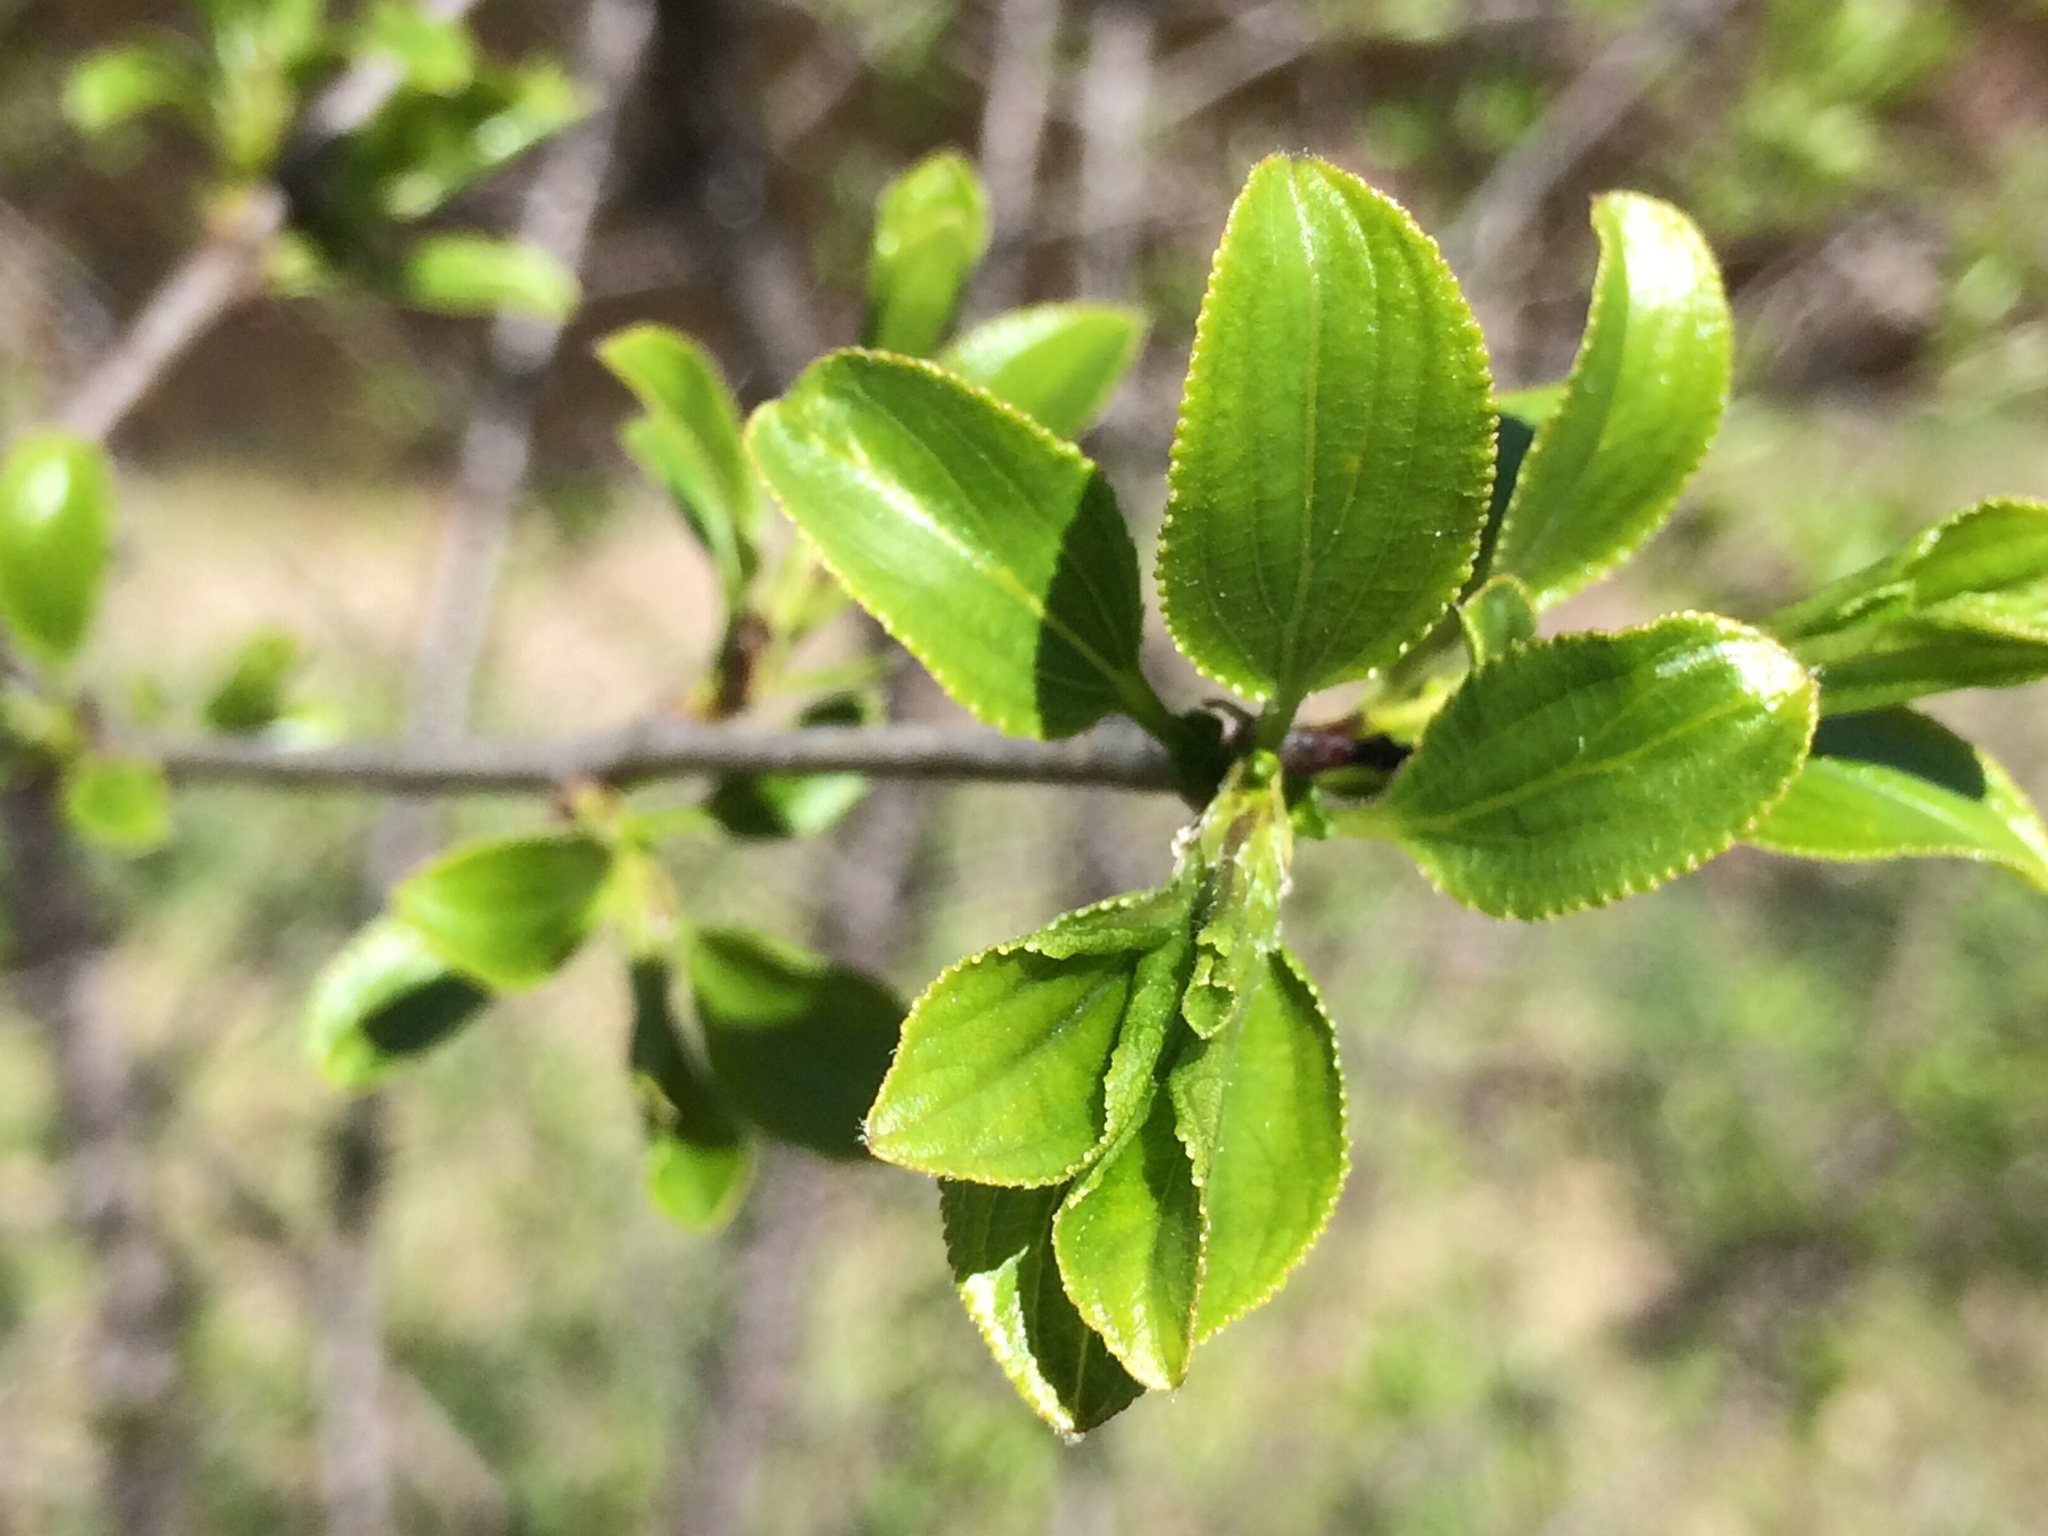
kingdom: Plantae
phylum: Tracheophyta
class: Magnoliopsida
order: Rosales
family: Rhamnaceae
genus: Rhamnus
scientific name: Rhamnus cathartica
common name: Common buckthorn
